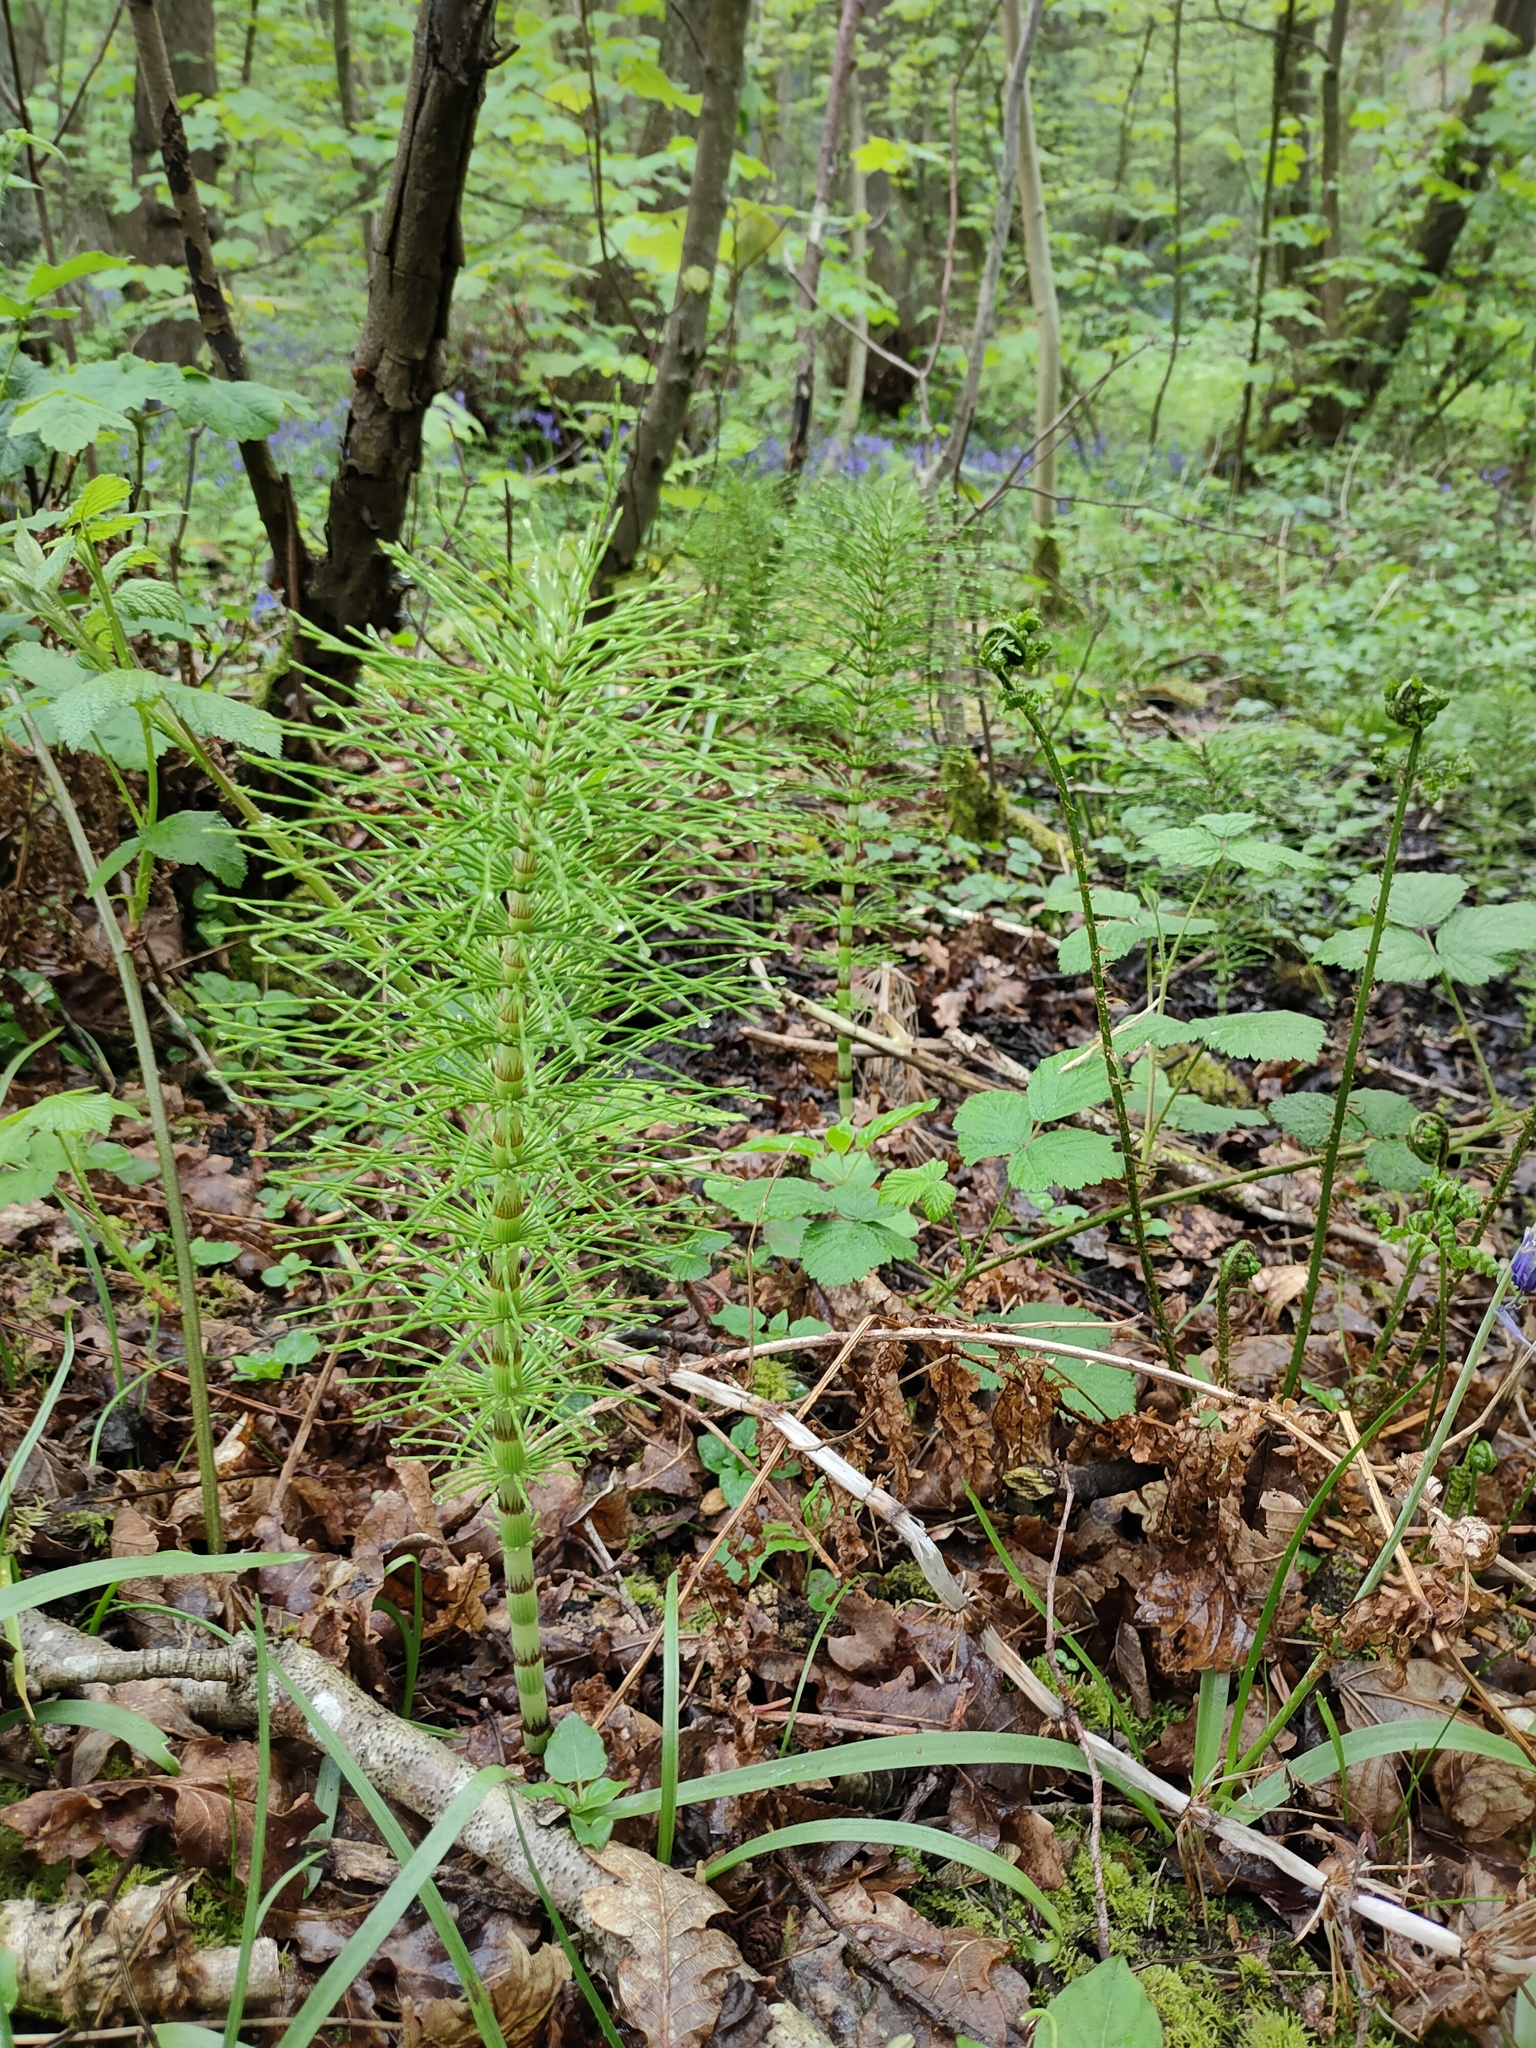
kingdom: Plantae
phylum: Tracheophyta
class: Polypodiopsida
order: Equisetales
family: Equisetaceae
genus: Equisetum
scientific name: Equisetum telmateia
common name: Great horsetail
